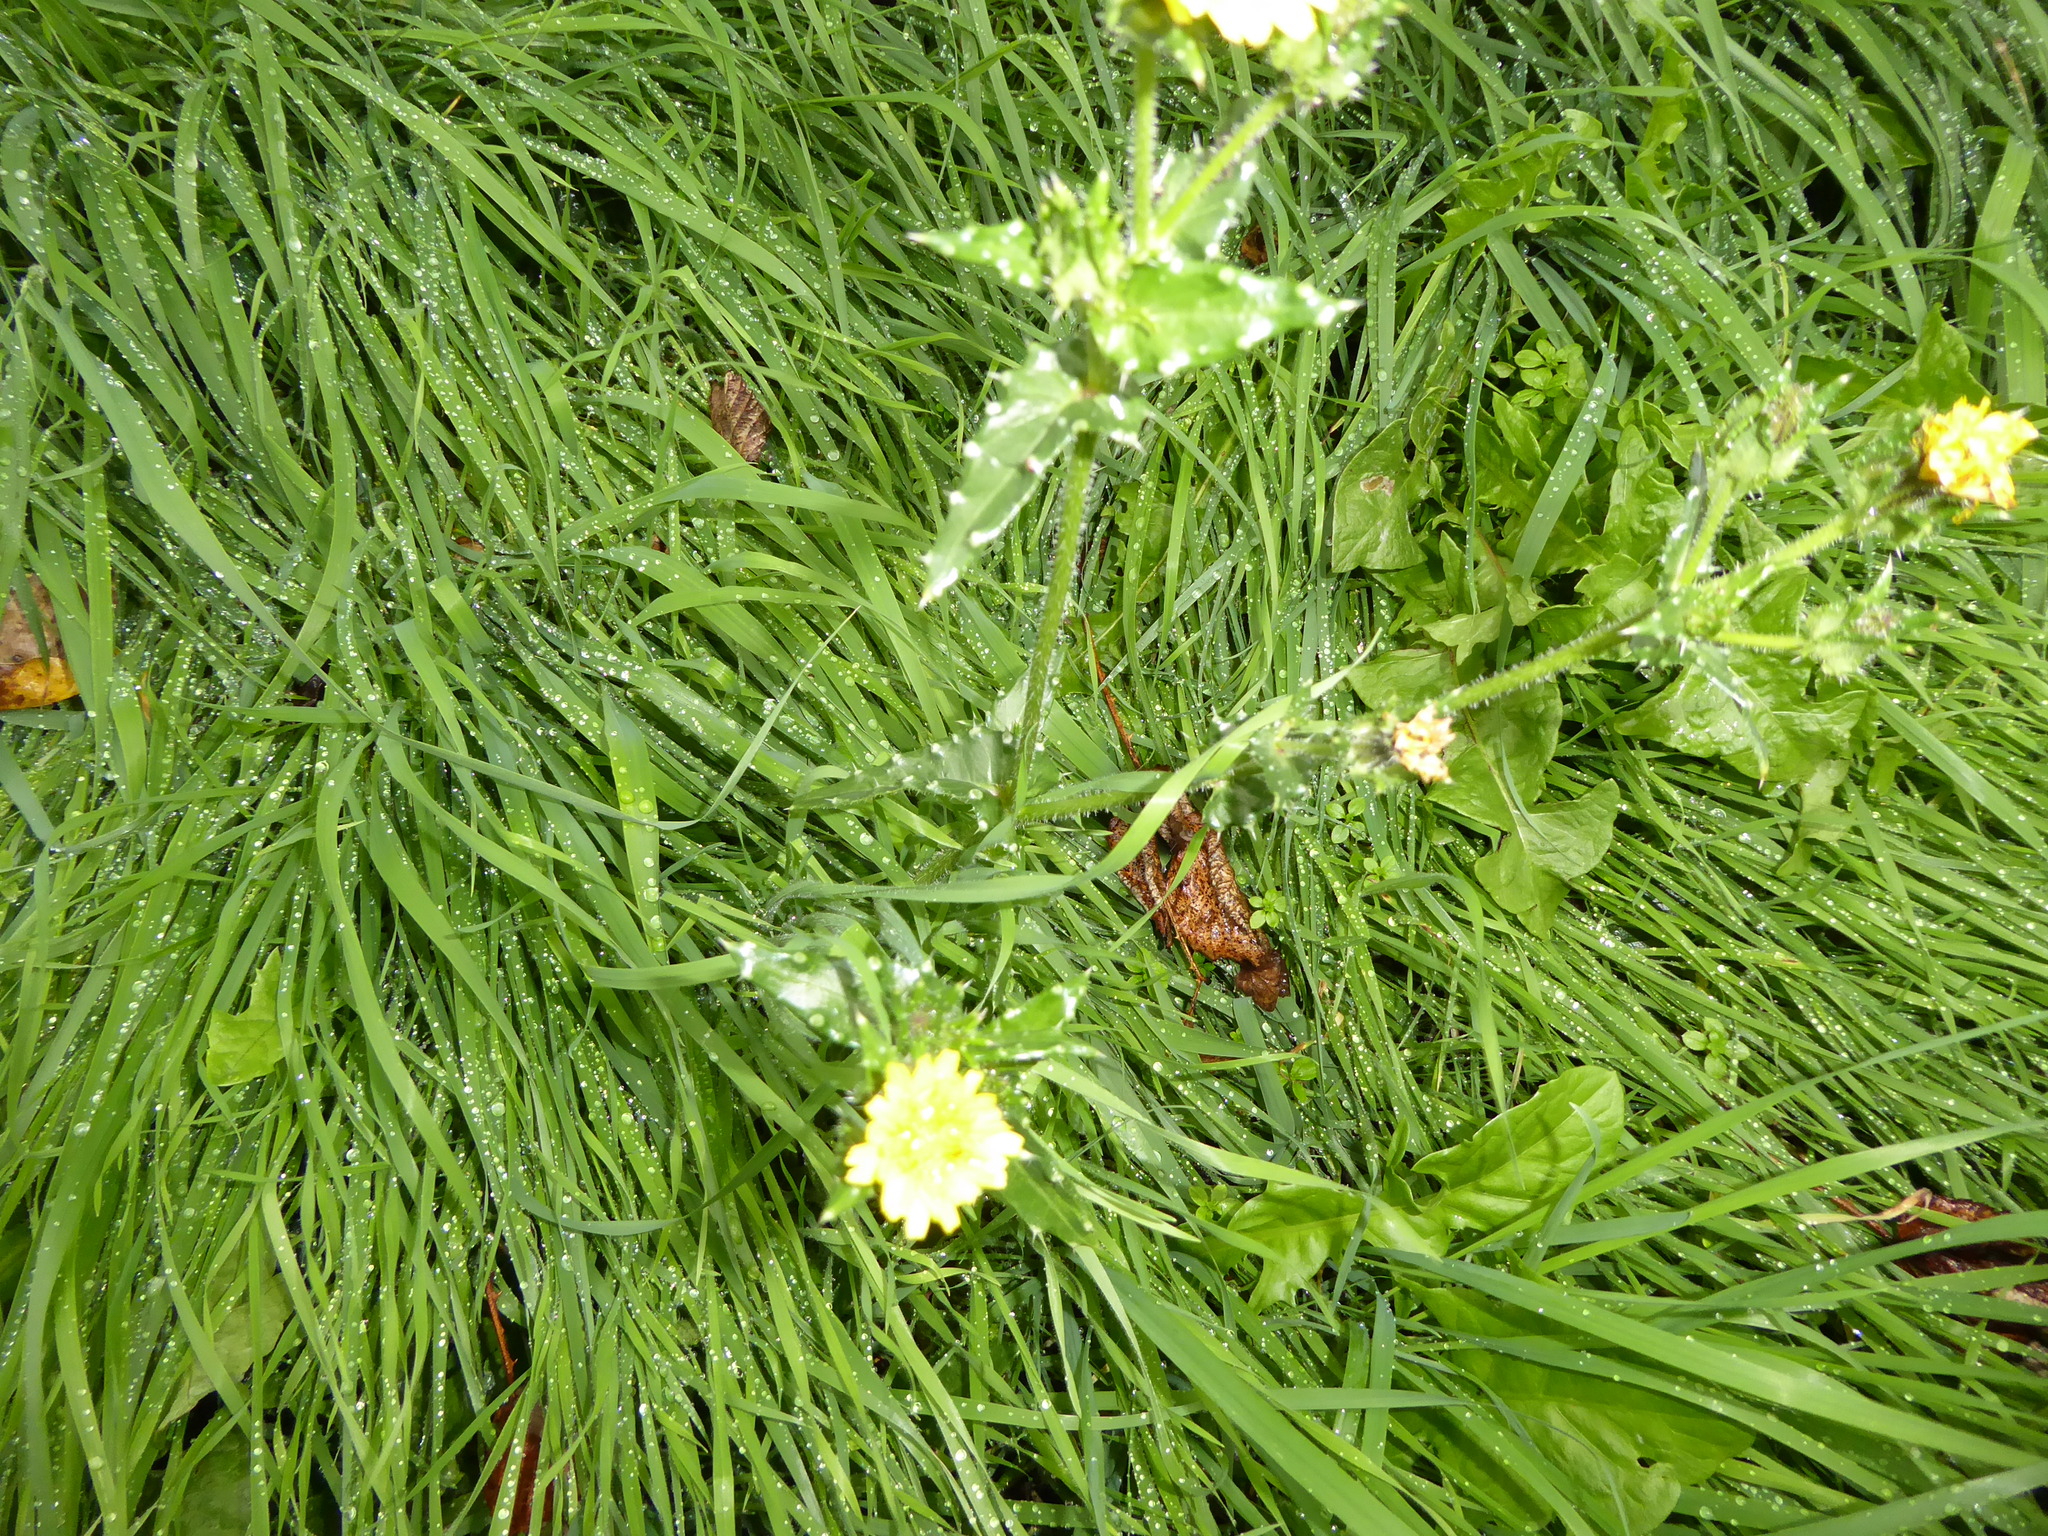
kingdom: Plantae
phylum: Tracheophyta
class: Magnoliopsida
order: Asterales
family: Asteraceae
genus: Helminthotheca
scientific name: Helminthotheca echioides
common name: Ox-tongue
